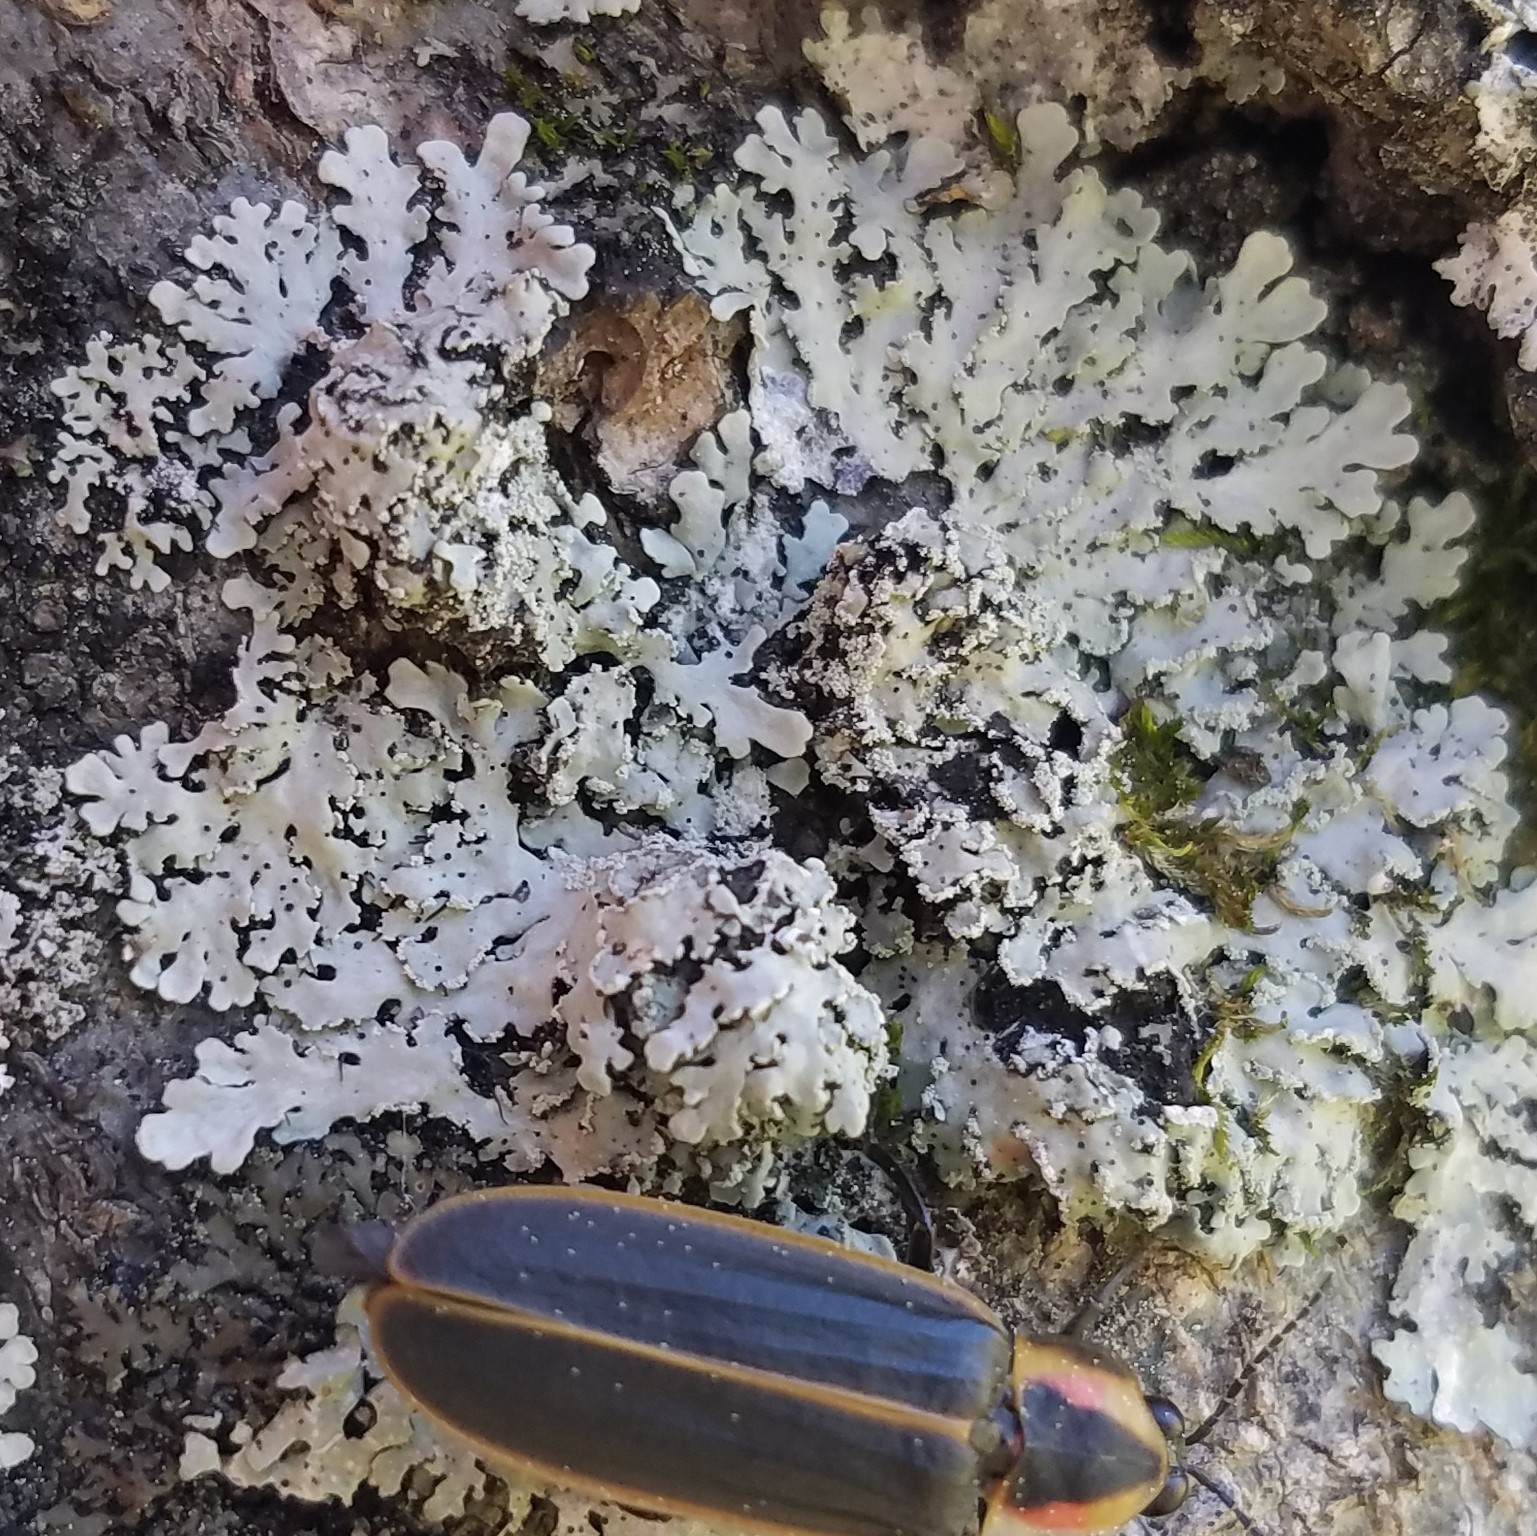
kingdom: Fungi
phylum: Ascomycota
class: Lecanoromycetes
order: Caliciales
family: Physciaceae
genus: Polyblastidium
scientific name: Polyblastidium albicans
